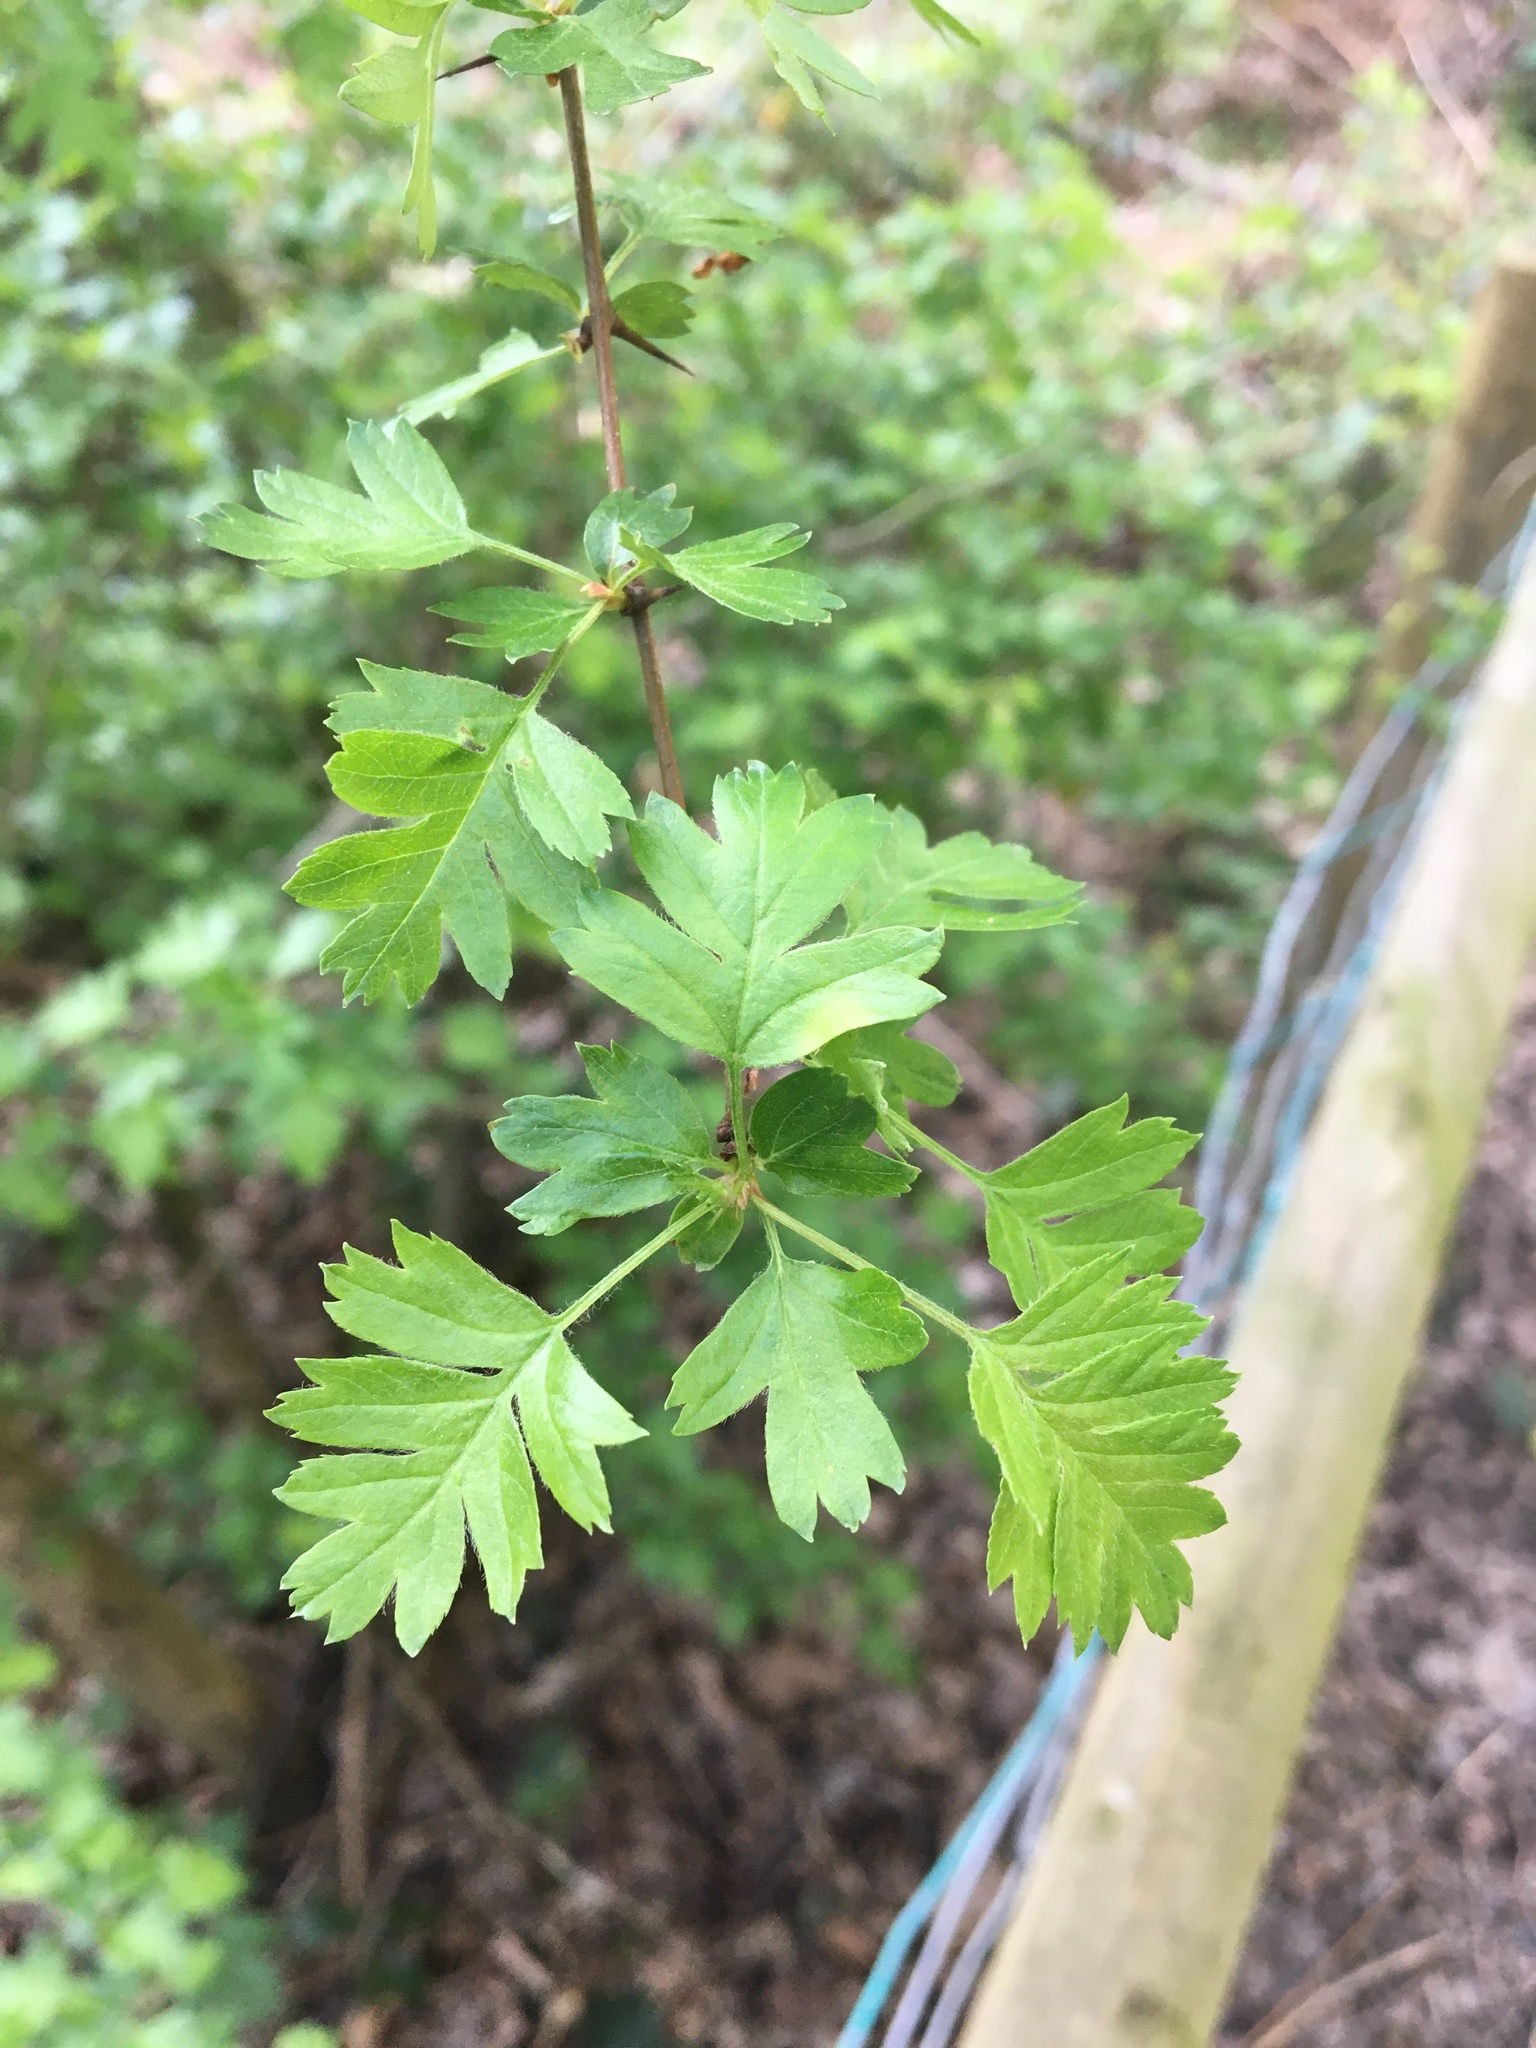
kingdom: Plantae
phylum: Tracheophyta
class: Magnoliopsida
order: Rosales
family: Rosaceae
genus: Crataegus
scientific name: Crataegus monogyna
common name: Hawthorn
